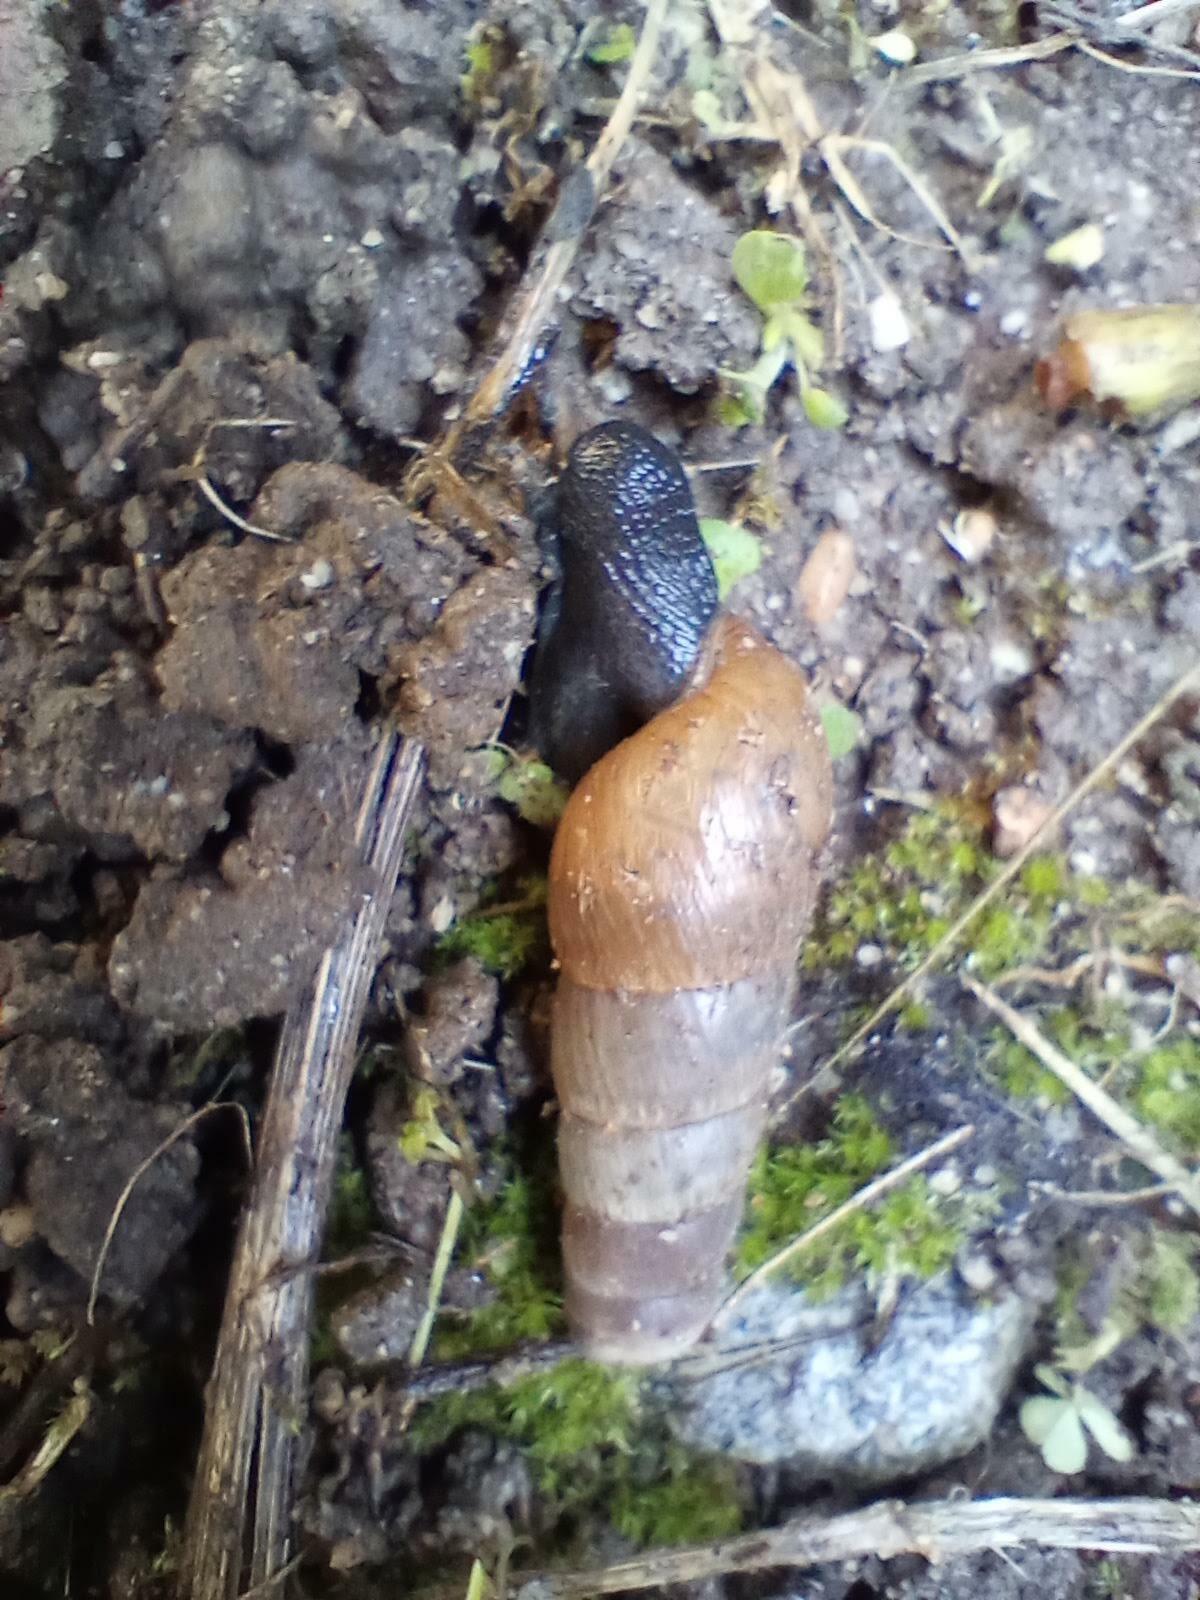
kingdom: Animalia
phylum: Mollusca
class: Gastropoda
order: Stylommatophora
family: Achatinidae
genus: Rumina
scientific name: Rumina decollata
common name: Decollate snail
